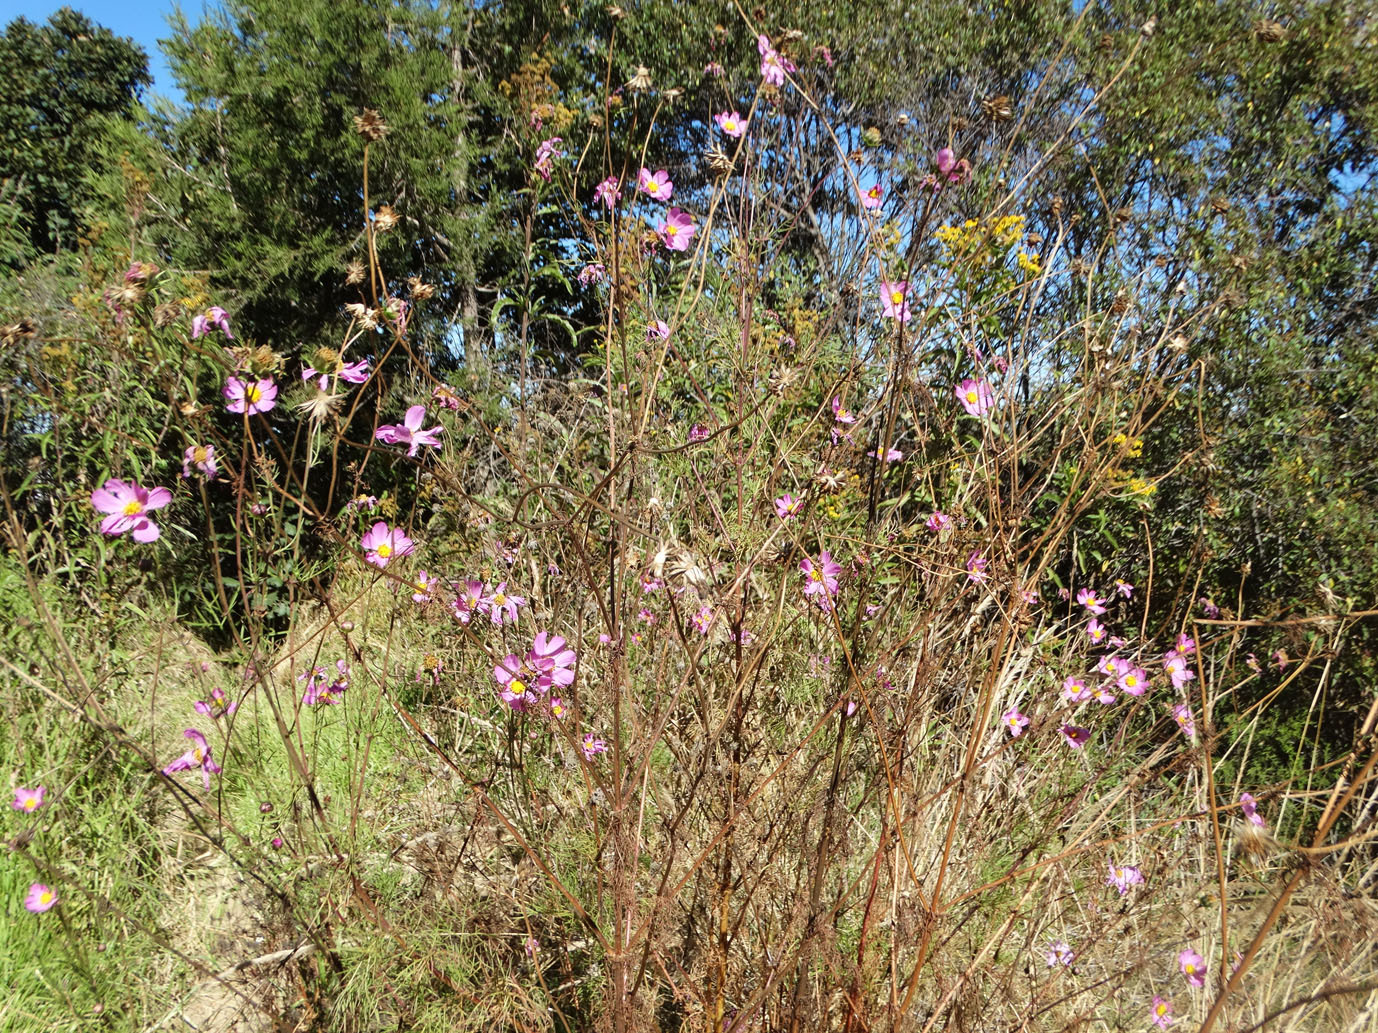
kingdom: Plantae
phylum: Tracheophyta
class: Magnoliopsida
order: Asterales
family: Asteraceae
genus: Cosmos
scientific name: Cosmos bipinnatus
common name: Garden cosmos
